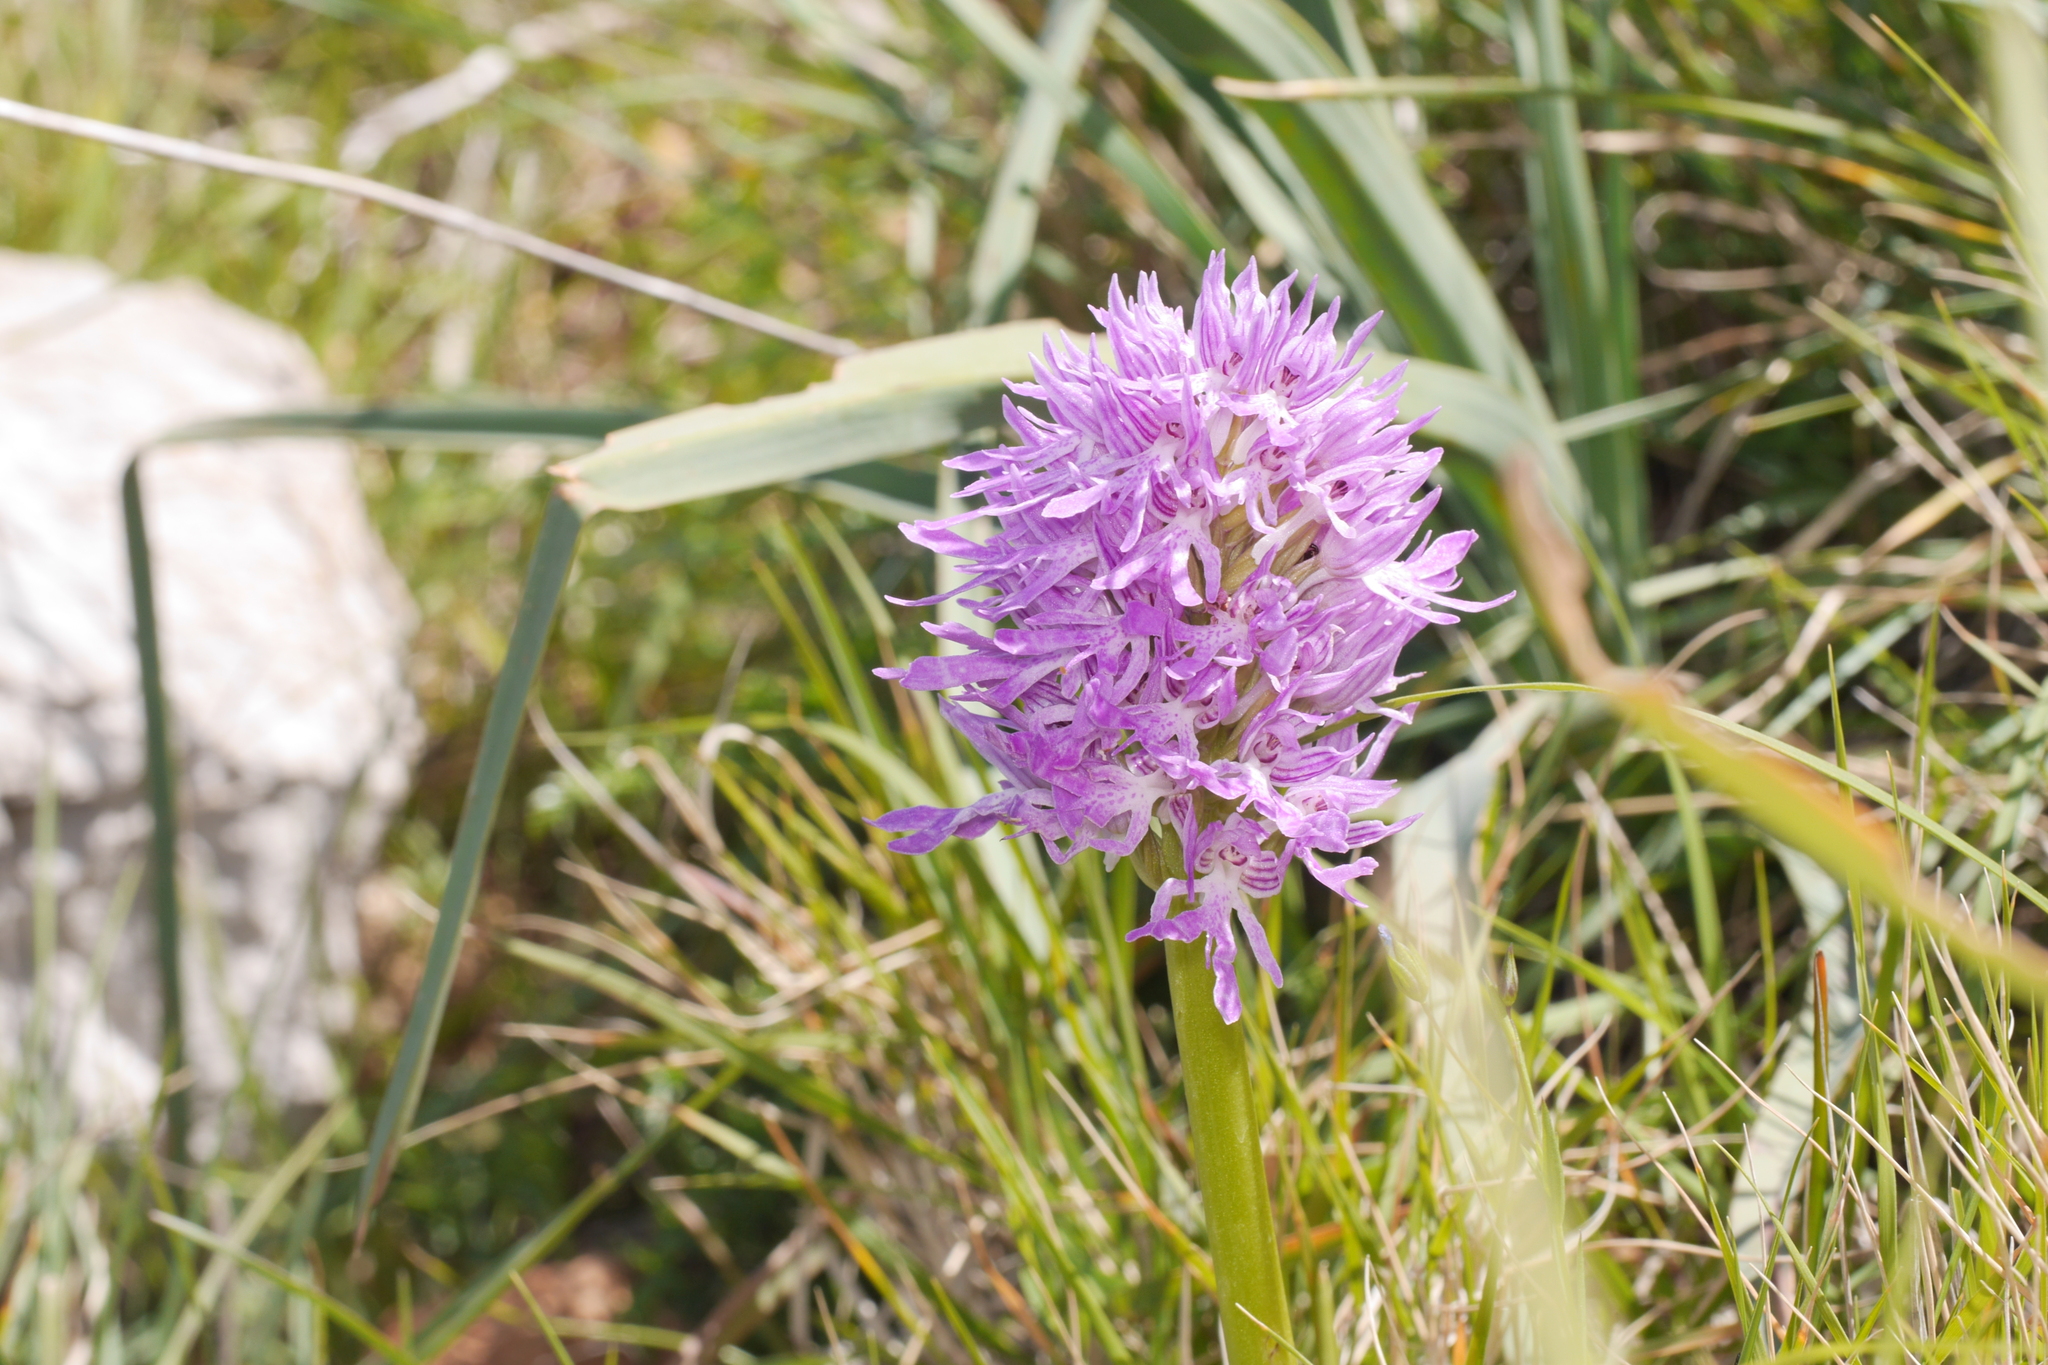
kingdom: Plantae
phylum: Tracheophyta
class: Liliopsida
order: Asparagales
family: Orchidaceae
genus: Orchis
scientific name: Orchis italica
